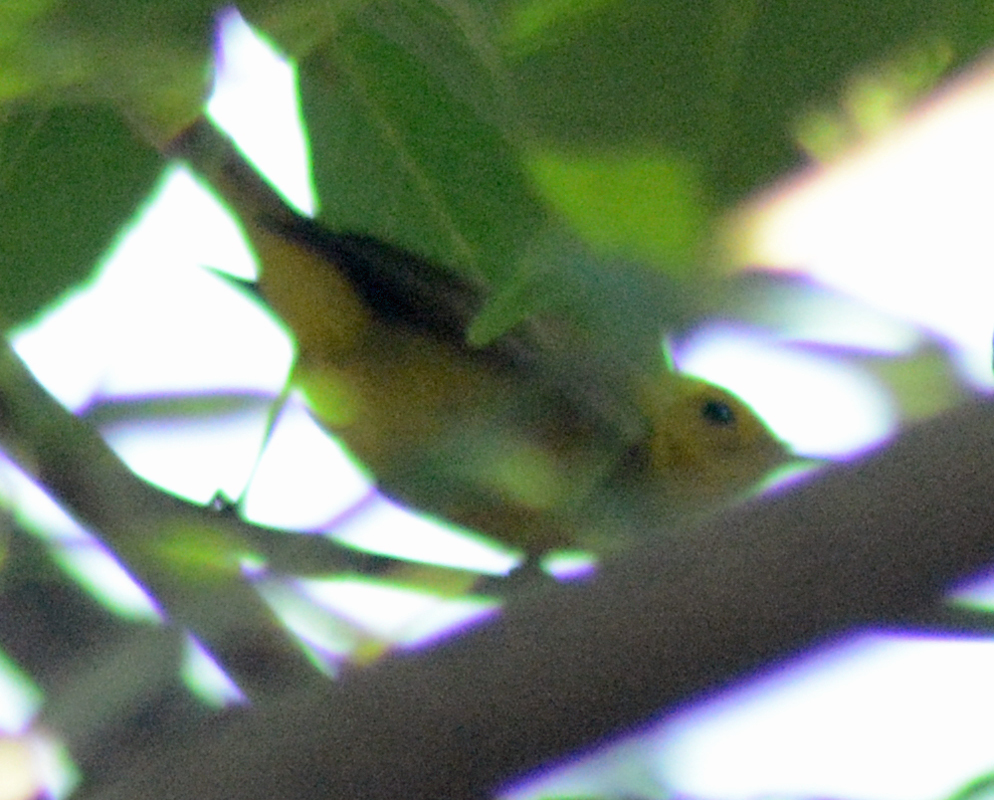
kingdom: Animalia
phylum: Chordata
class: Aves
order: Passeriformes
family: Parulidae
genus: Cardellina
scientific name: Cardellina pusilla
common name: Wilson's warbler
